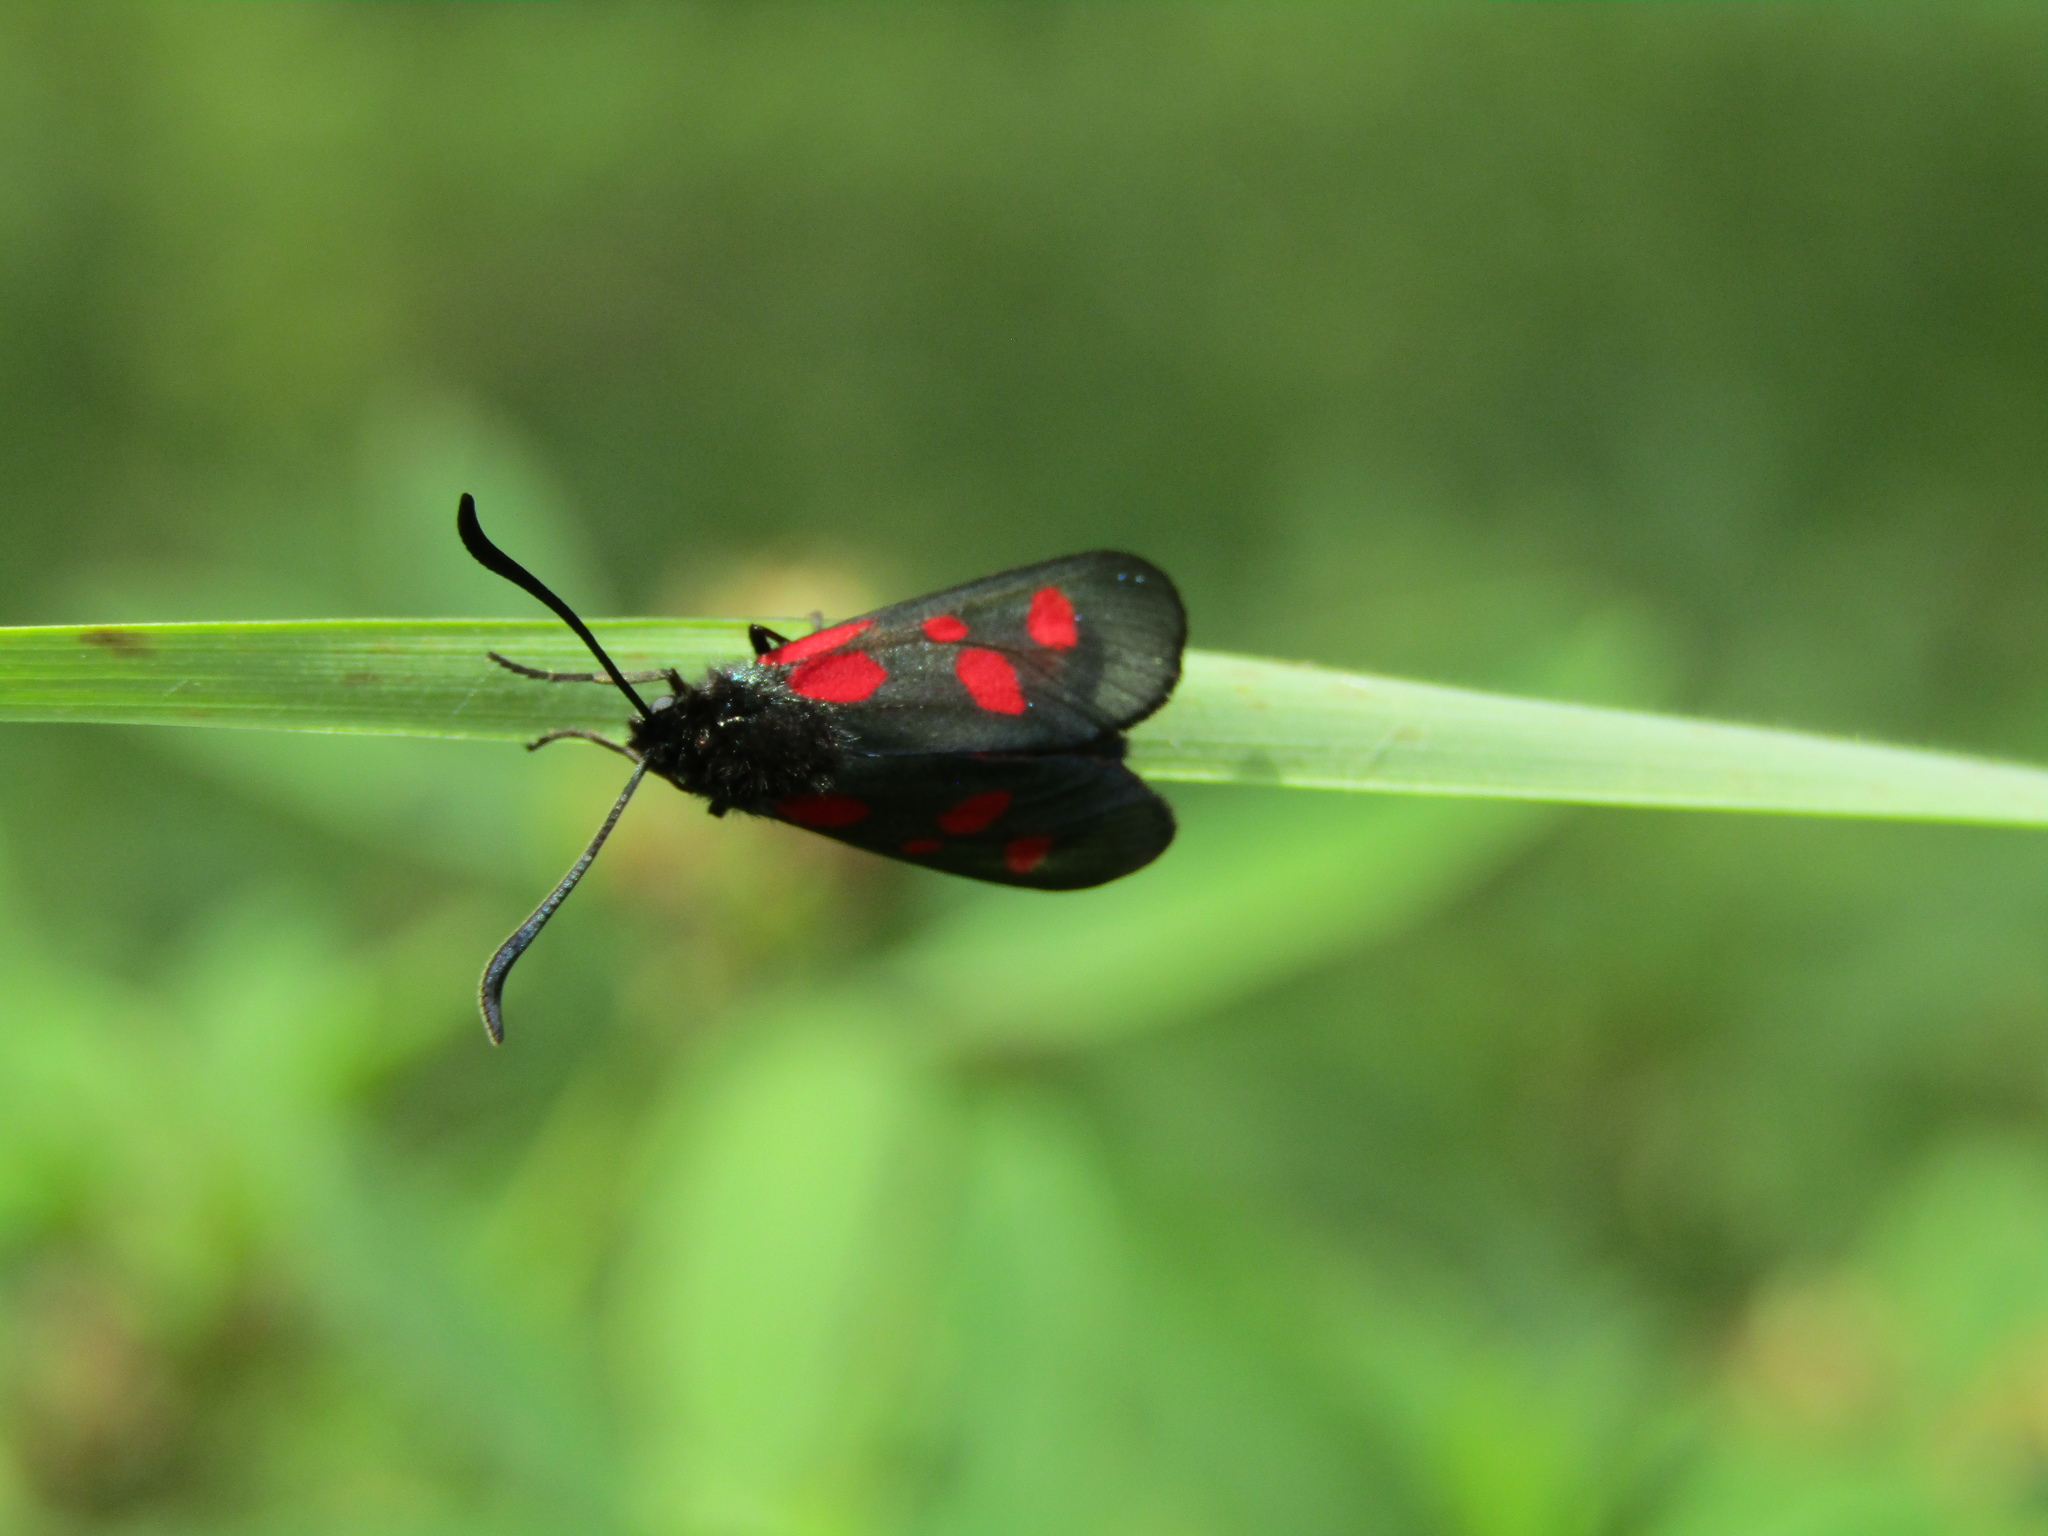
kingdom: Animalia
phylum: Arthropoda
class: Insecta
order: Lepidoptera
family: Zygaenidae
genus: Zygaena
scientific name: Zygaena viciae
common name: New forest burnet
